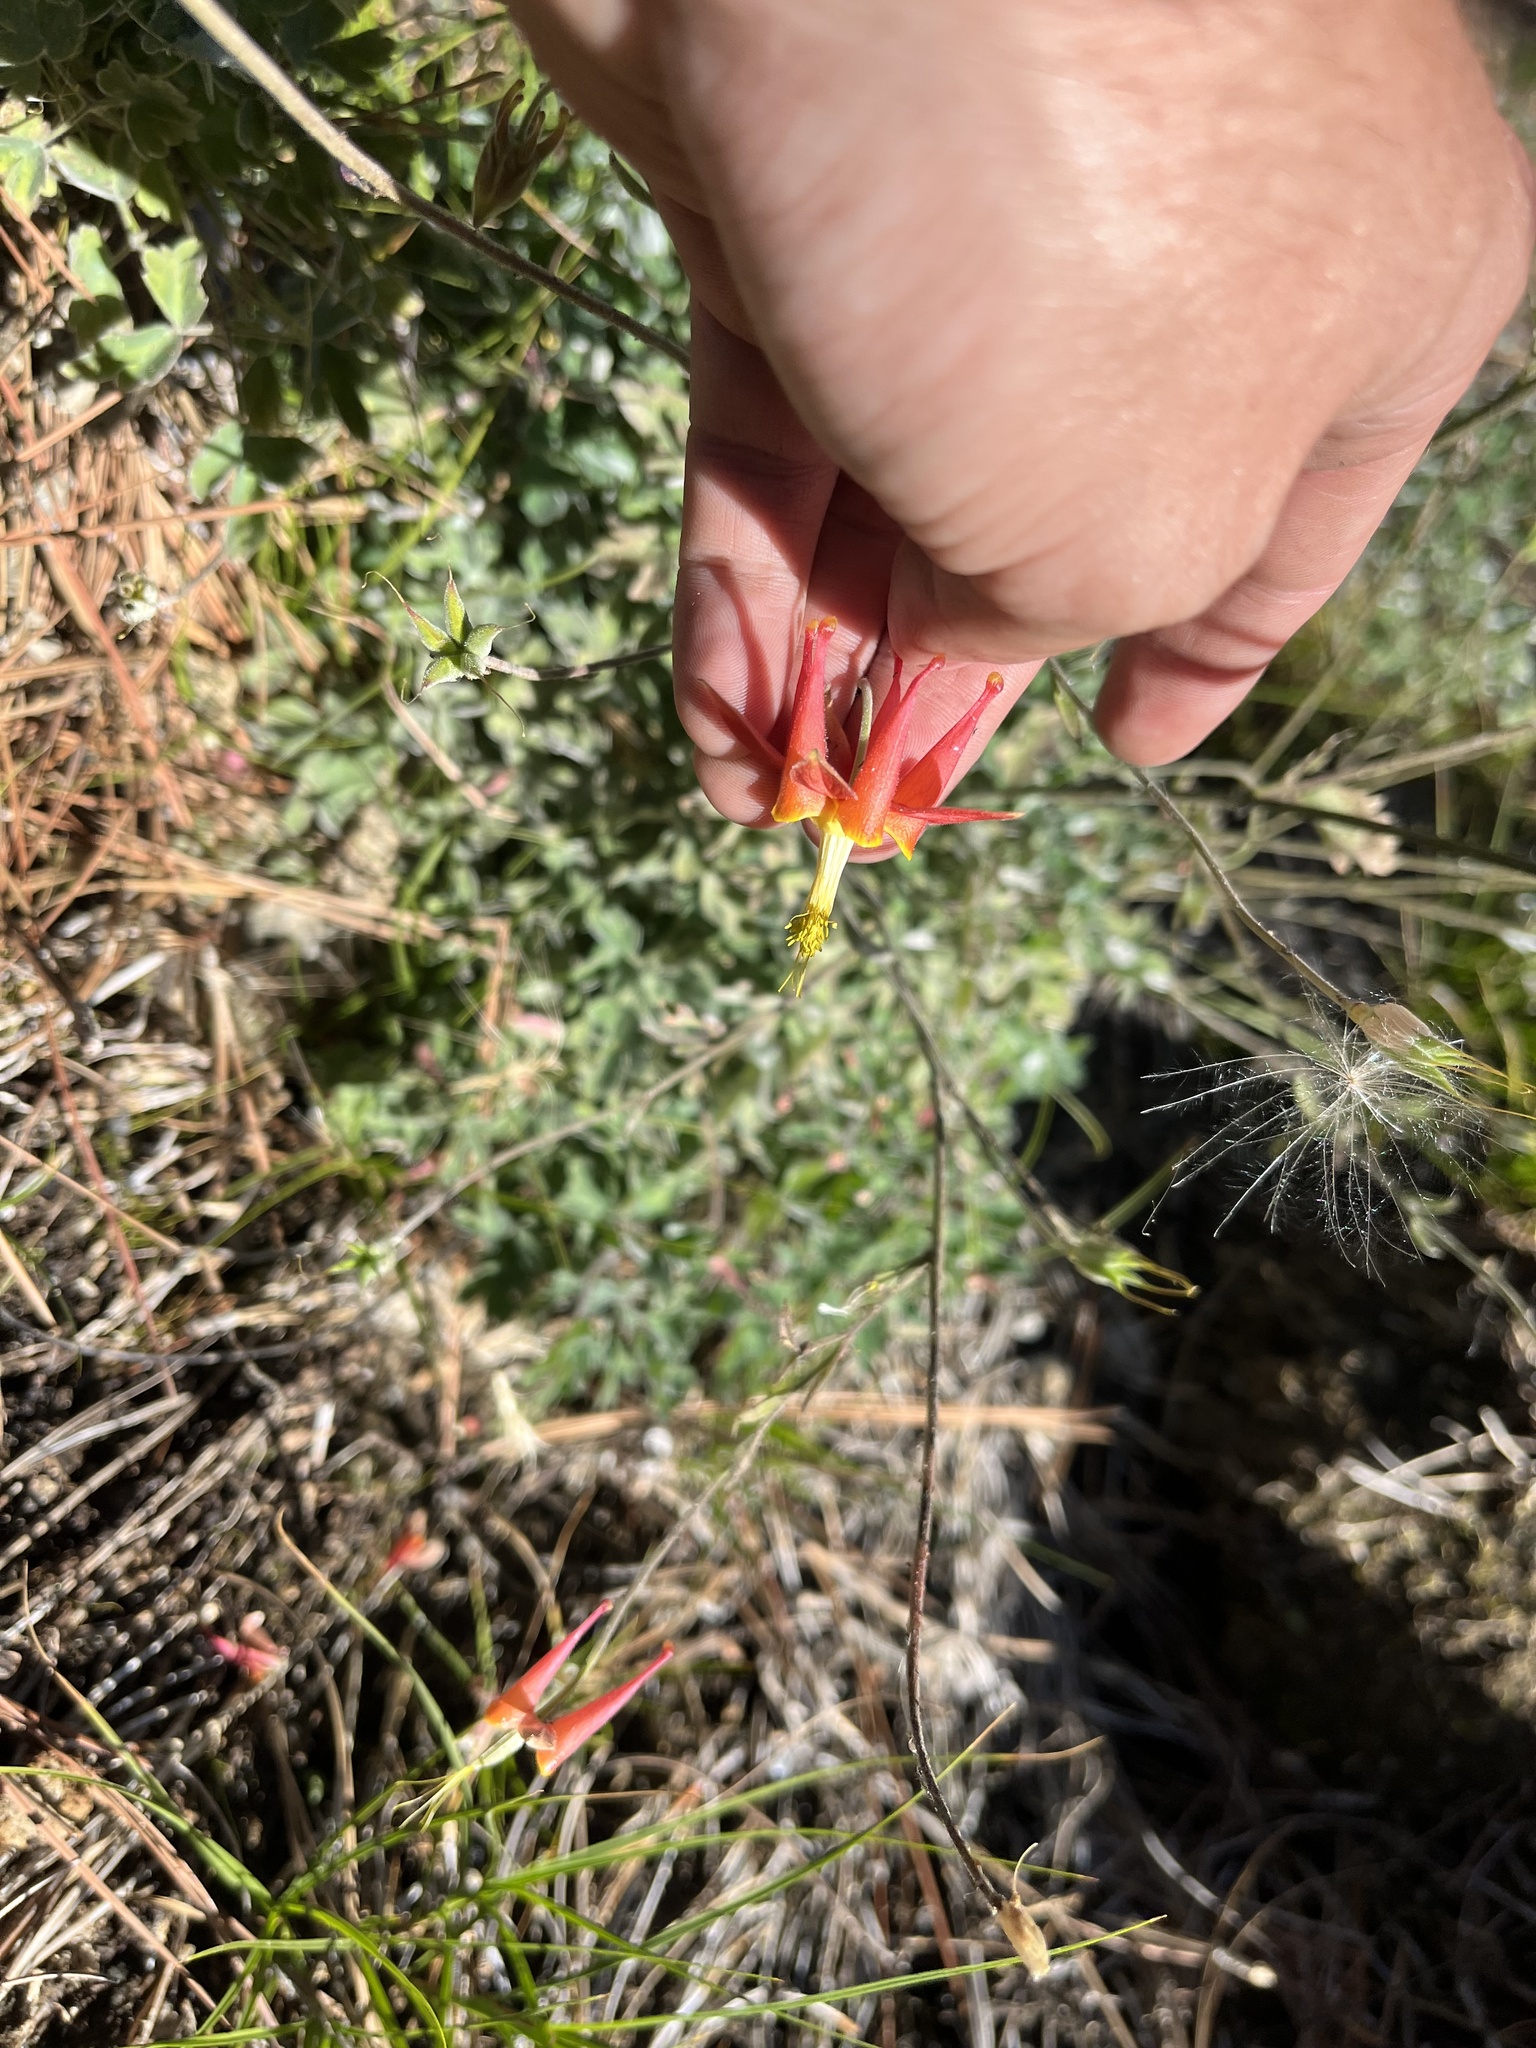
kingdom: Plantae
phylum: Tracheophyta
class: Magnoliopsida
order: Ranunculales
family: Ranunculaceae
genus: Aquilegia
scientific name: Aquilegia eximia
